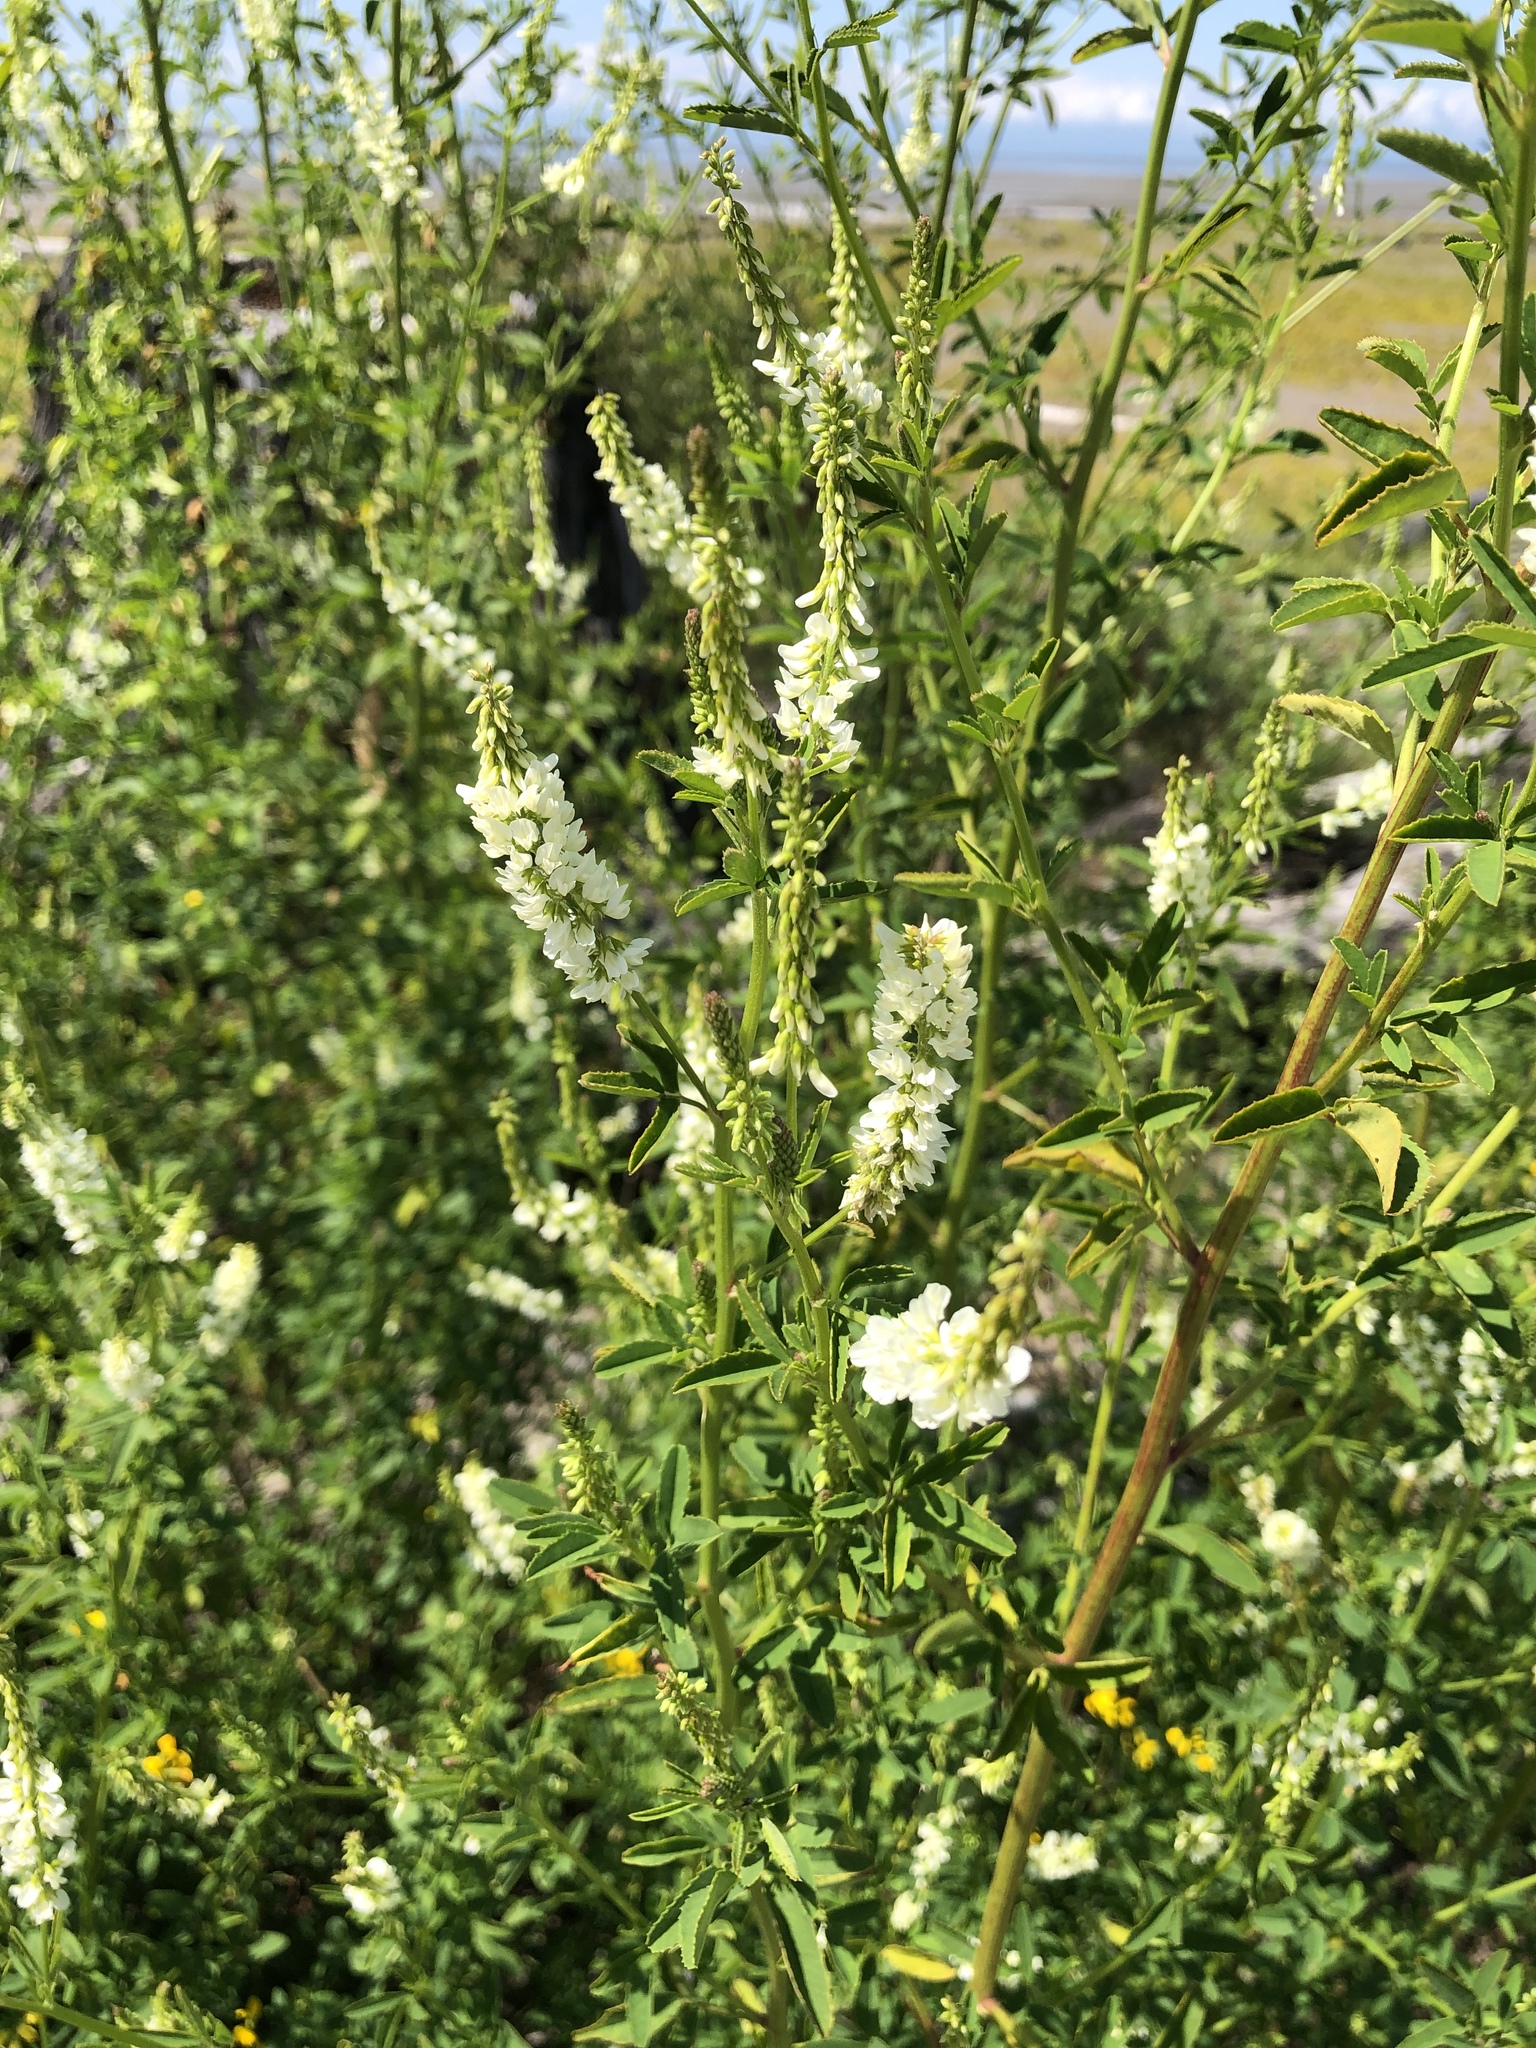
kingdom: Plantae
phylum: Tracheophyta
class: Magnoliopsida
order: Fabales
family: Fabaceae
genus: Melilotus
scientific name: Melilotus albus
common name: White melilot
